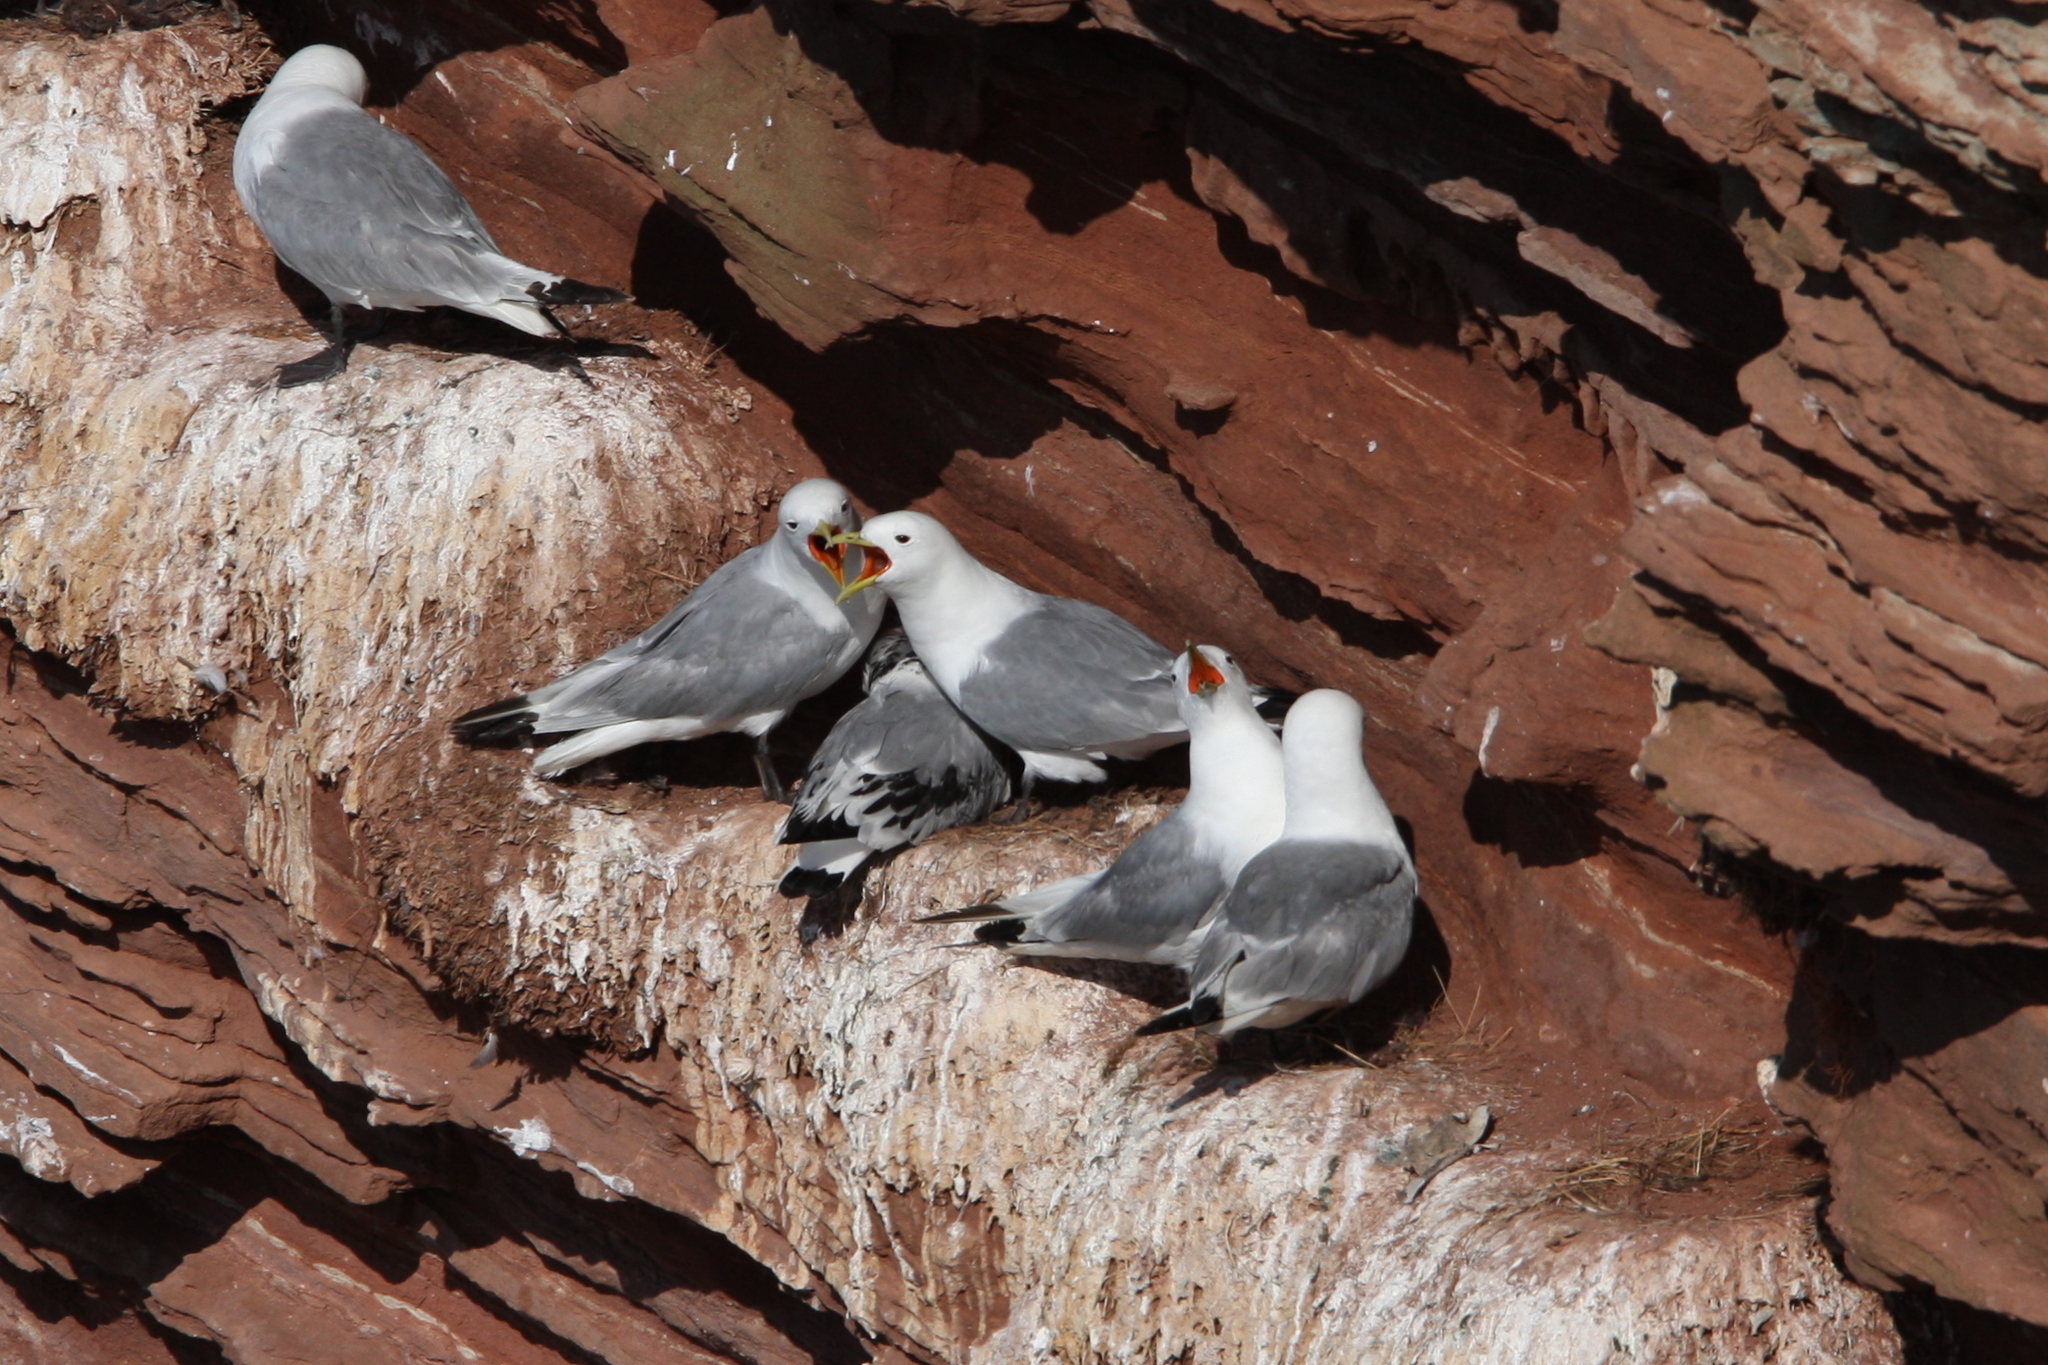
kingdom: Animalia
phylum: Chordata
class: Aves
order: Charadriiformes
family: Laridae
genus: Rissa
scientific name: Rissa tridactyla
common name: Black-legged kittiwake
